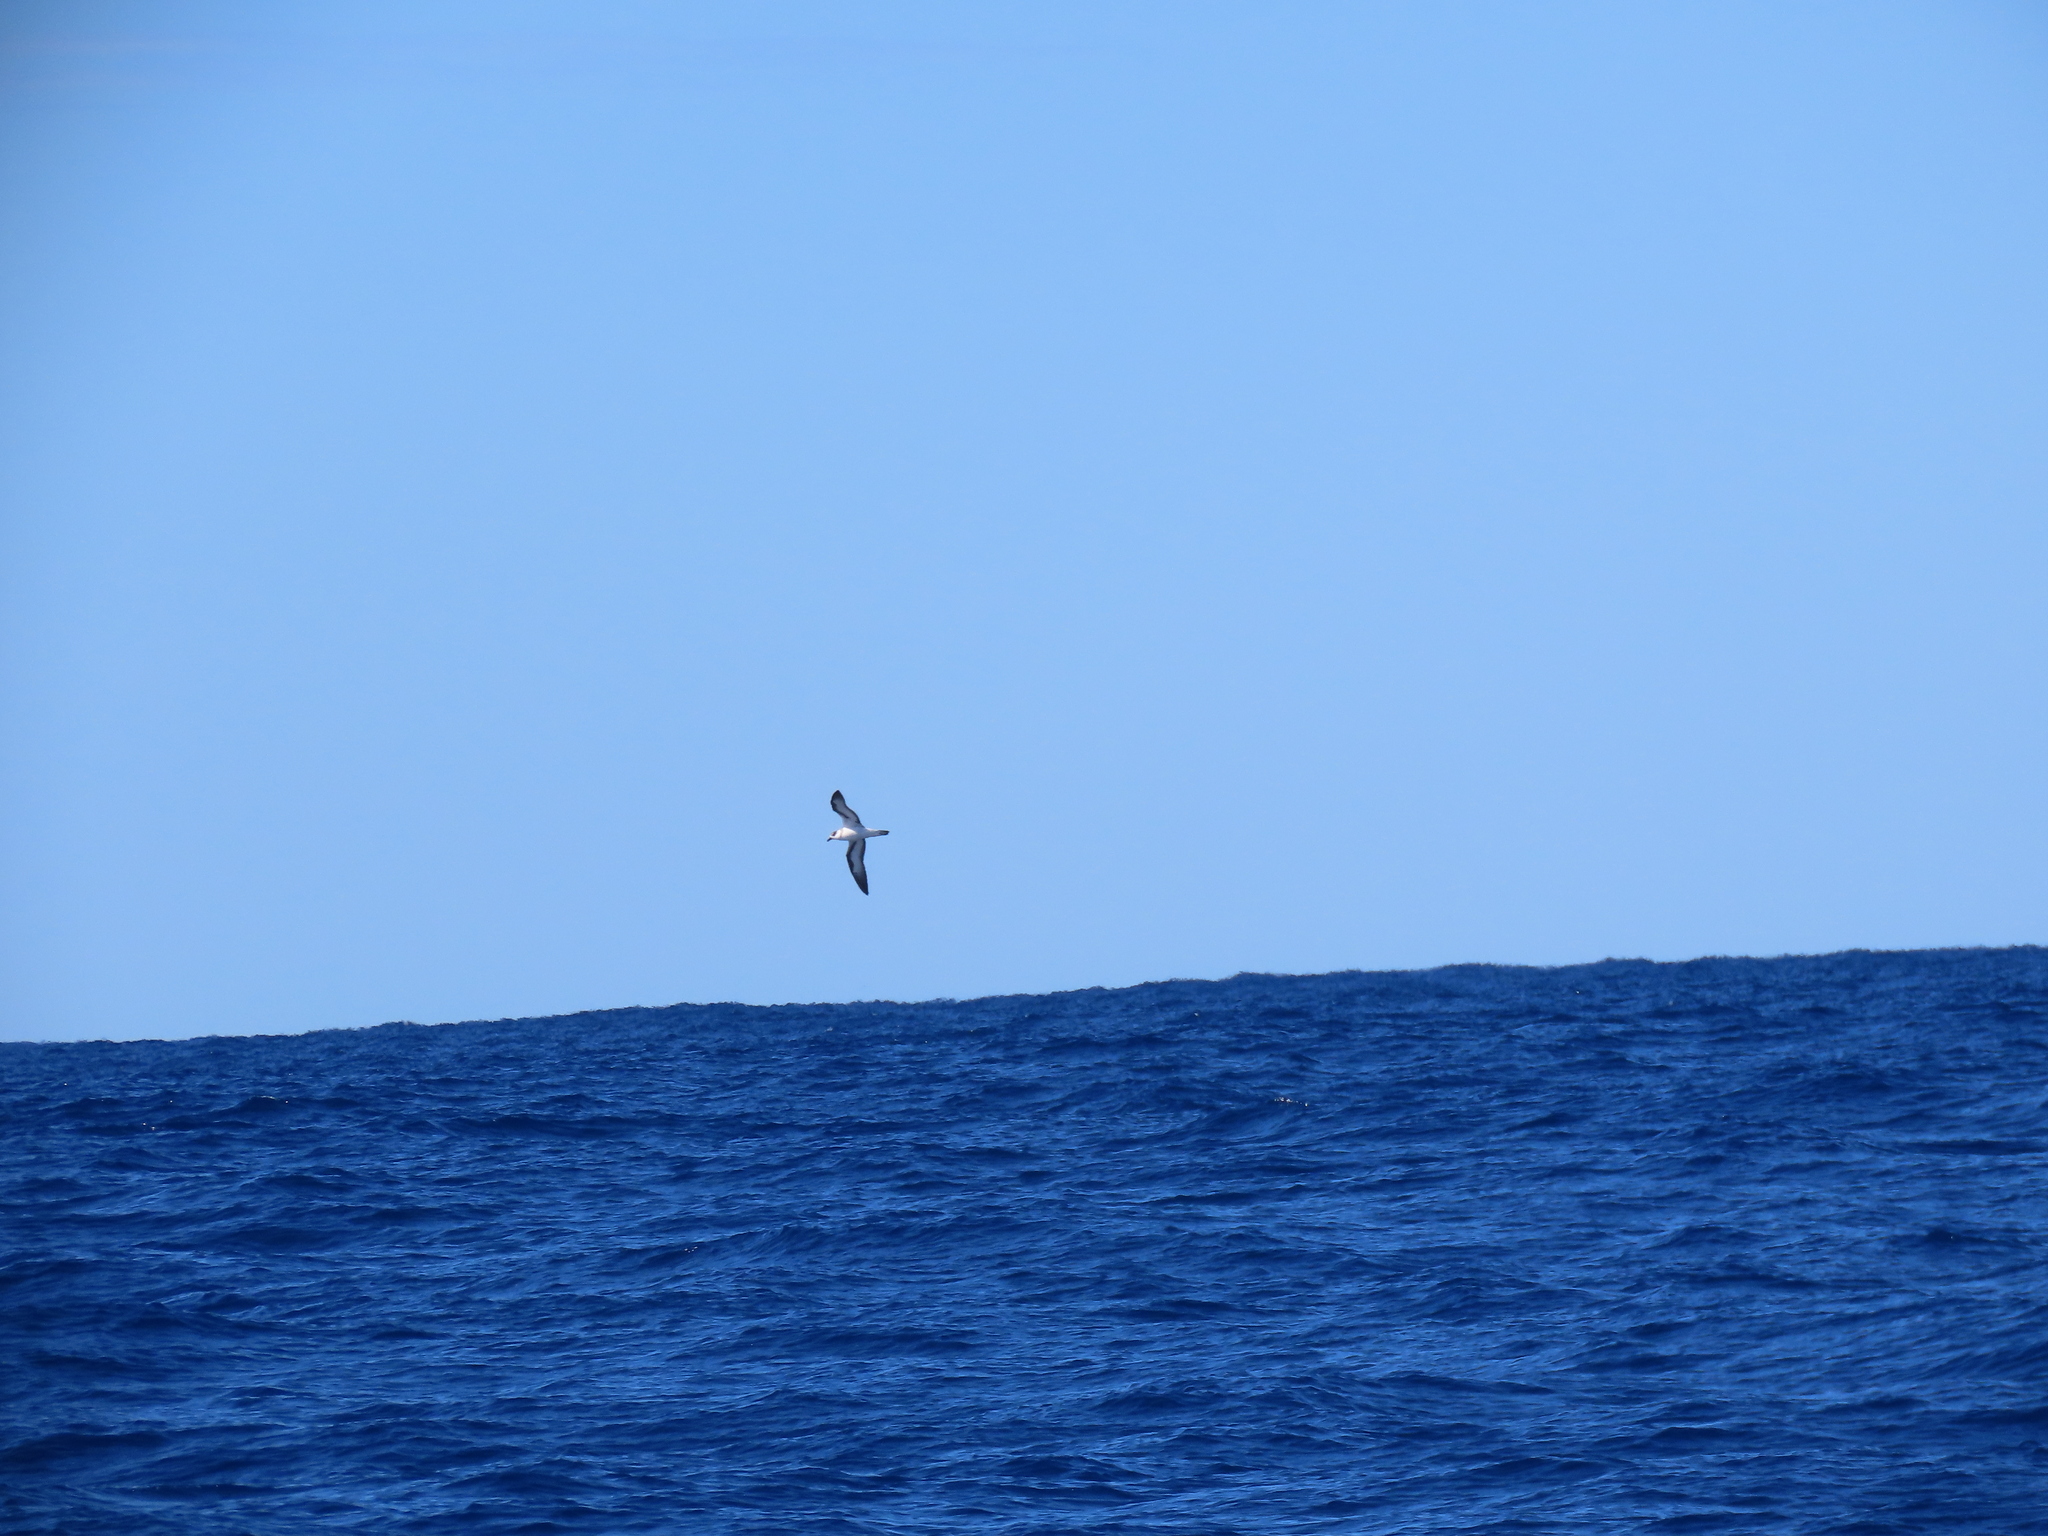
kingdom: Animalia
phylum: Chordata
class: Aves
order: Procellariiformes
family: Procellariidae
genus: Pterodroma
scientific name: Pterodroma hasitata
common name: Black-capped petrel
